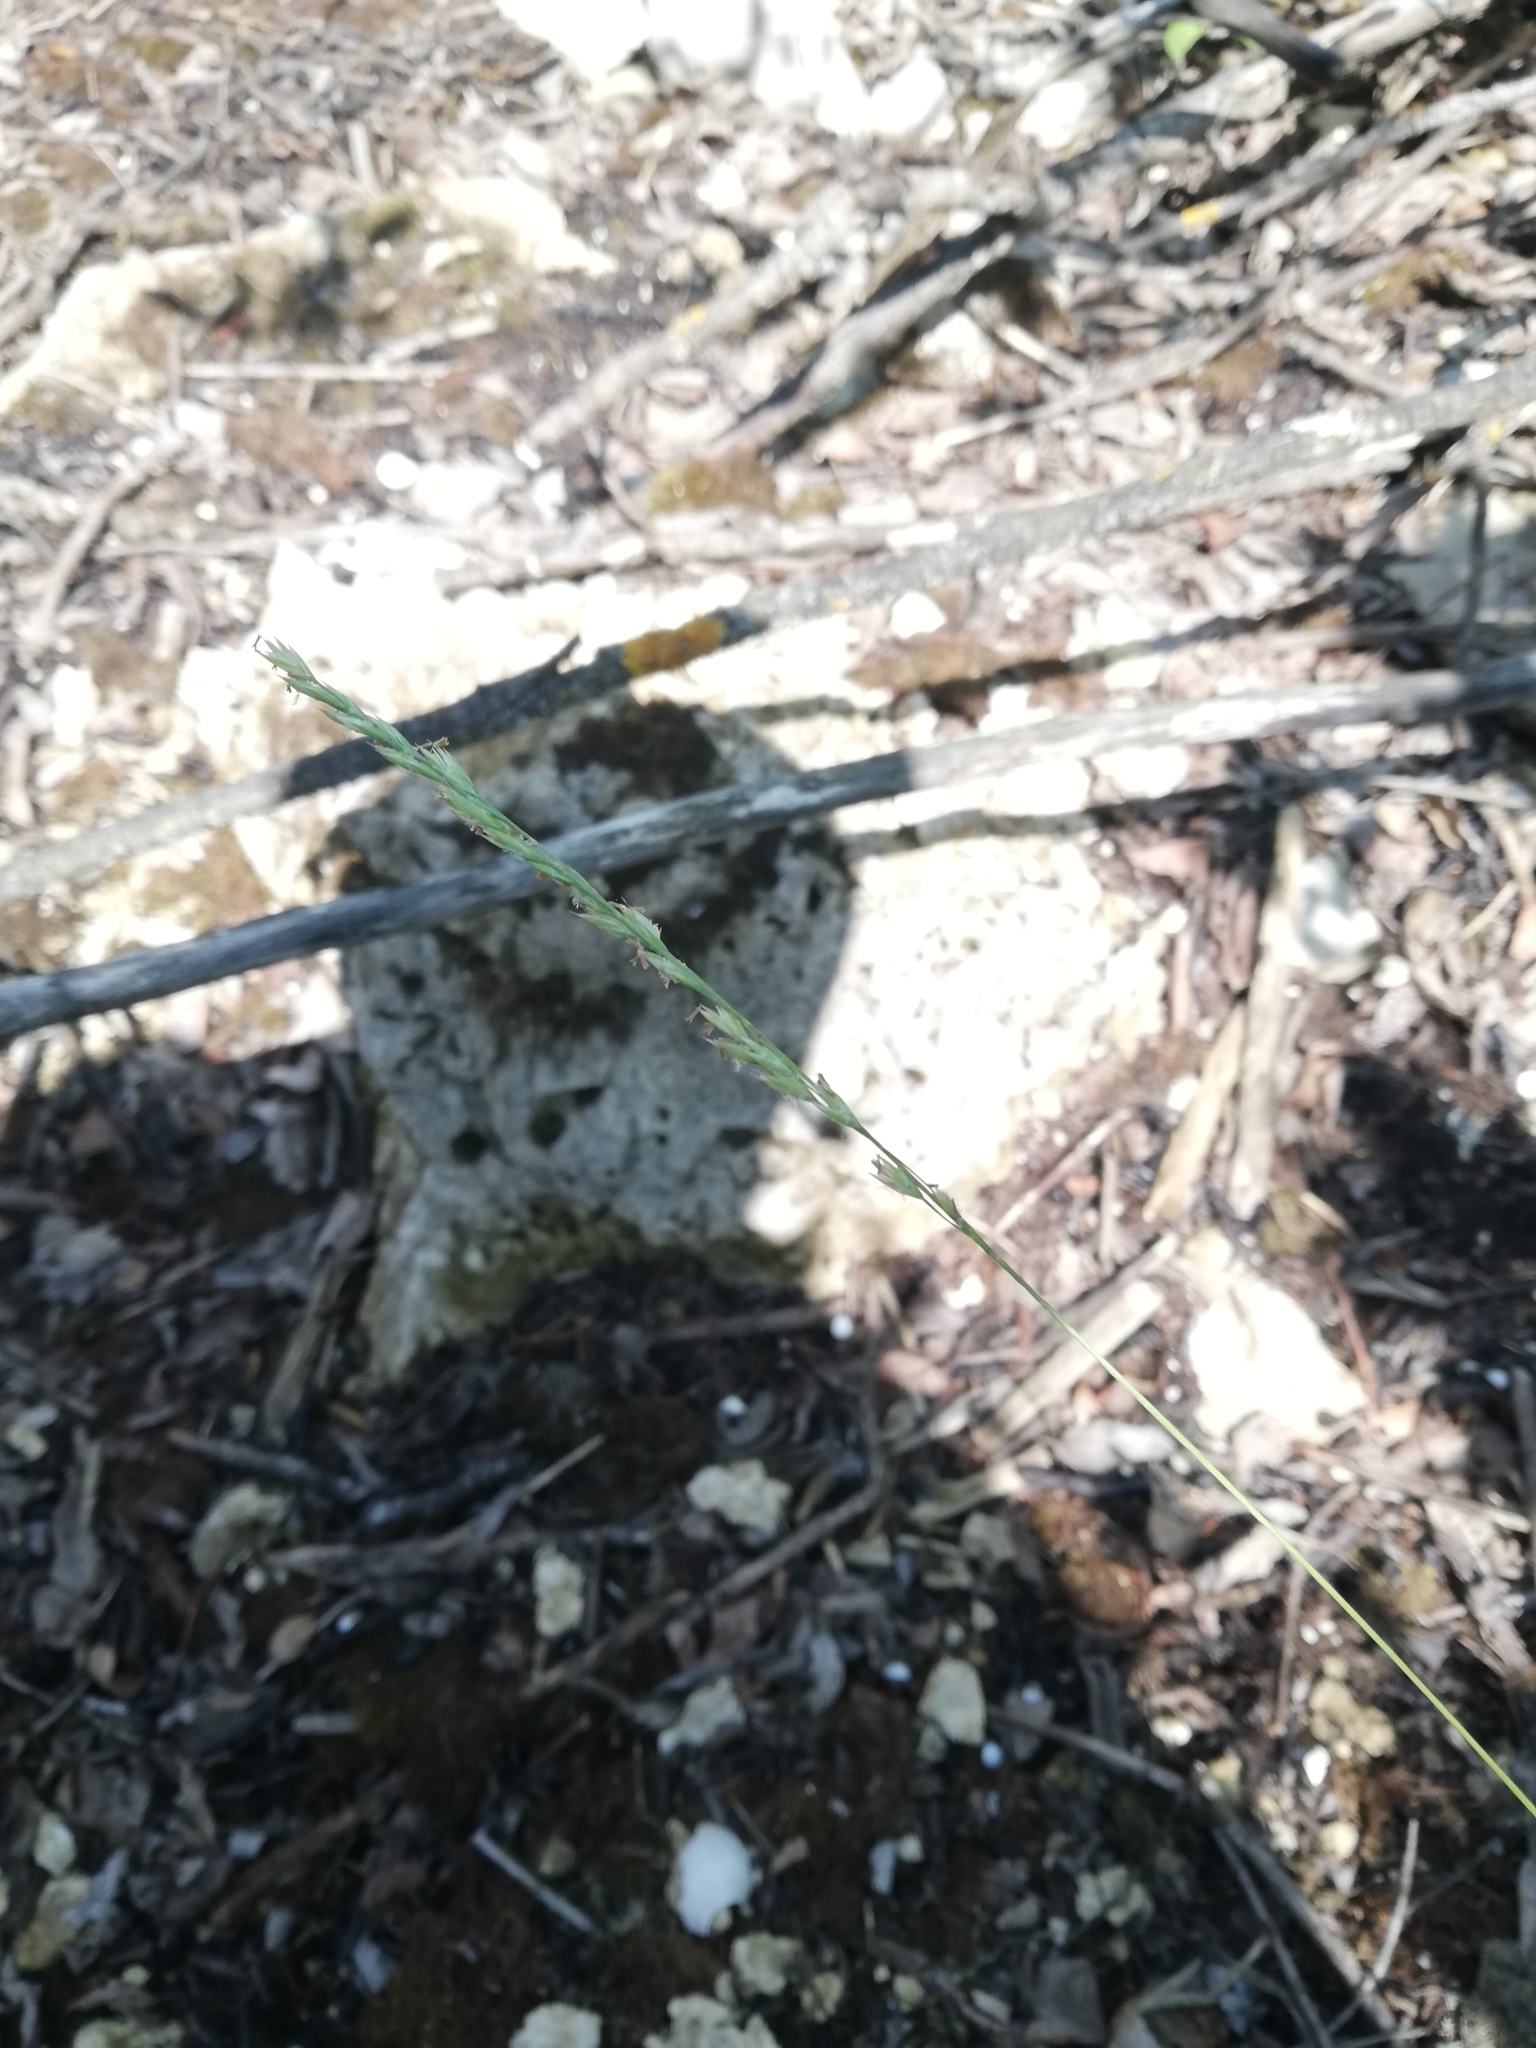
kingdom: Plantae
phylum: Tracheophyta
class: Liliopsida
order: Poales
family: Poaceae
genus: Elymus
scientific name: Elymus repens
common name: Quackgrass
